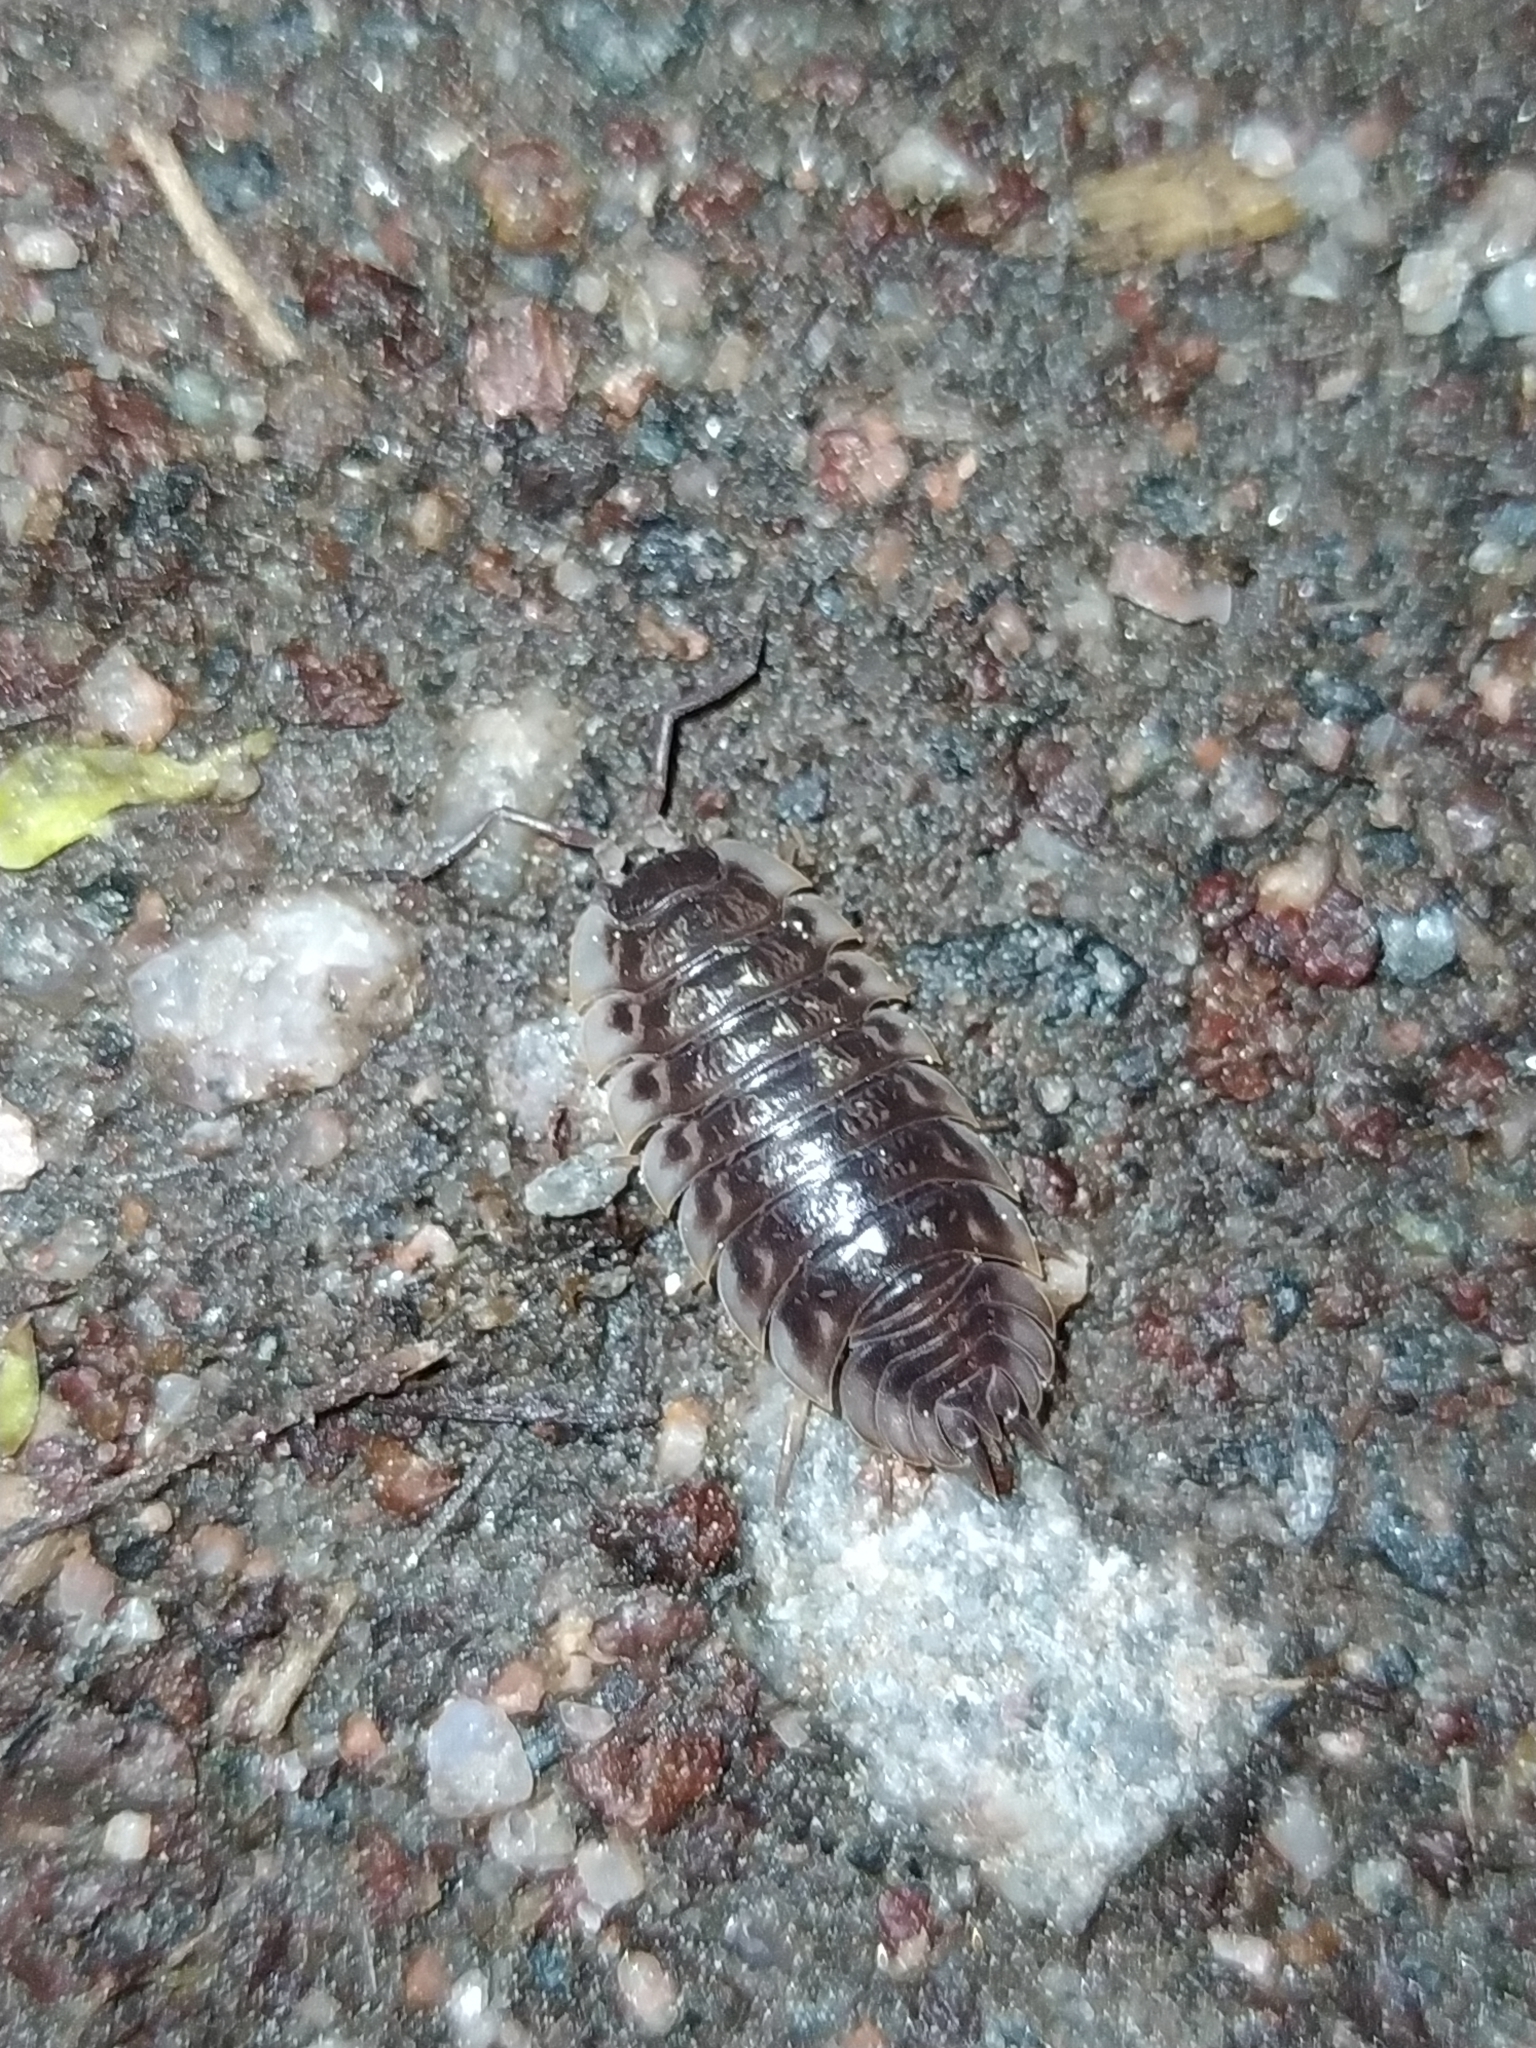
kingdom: Animalia
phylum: Arthropoda
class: Malacostraca
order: Isopoda
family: Oniscidae
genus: Oniscus
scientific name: Oniscus asellus
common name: Common shiny woodlouse
